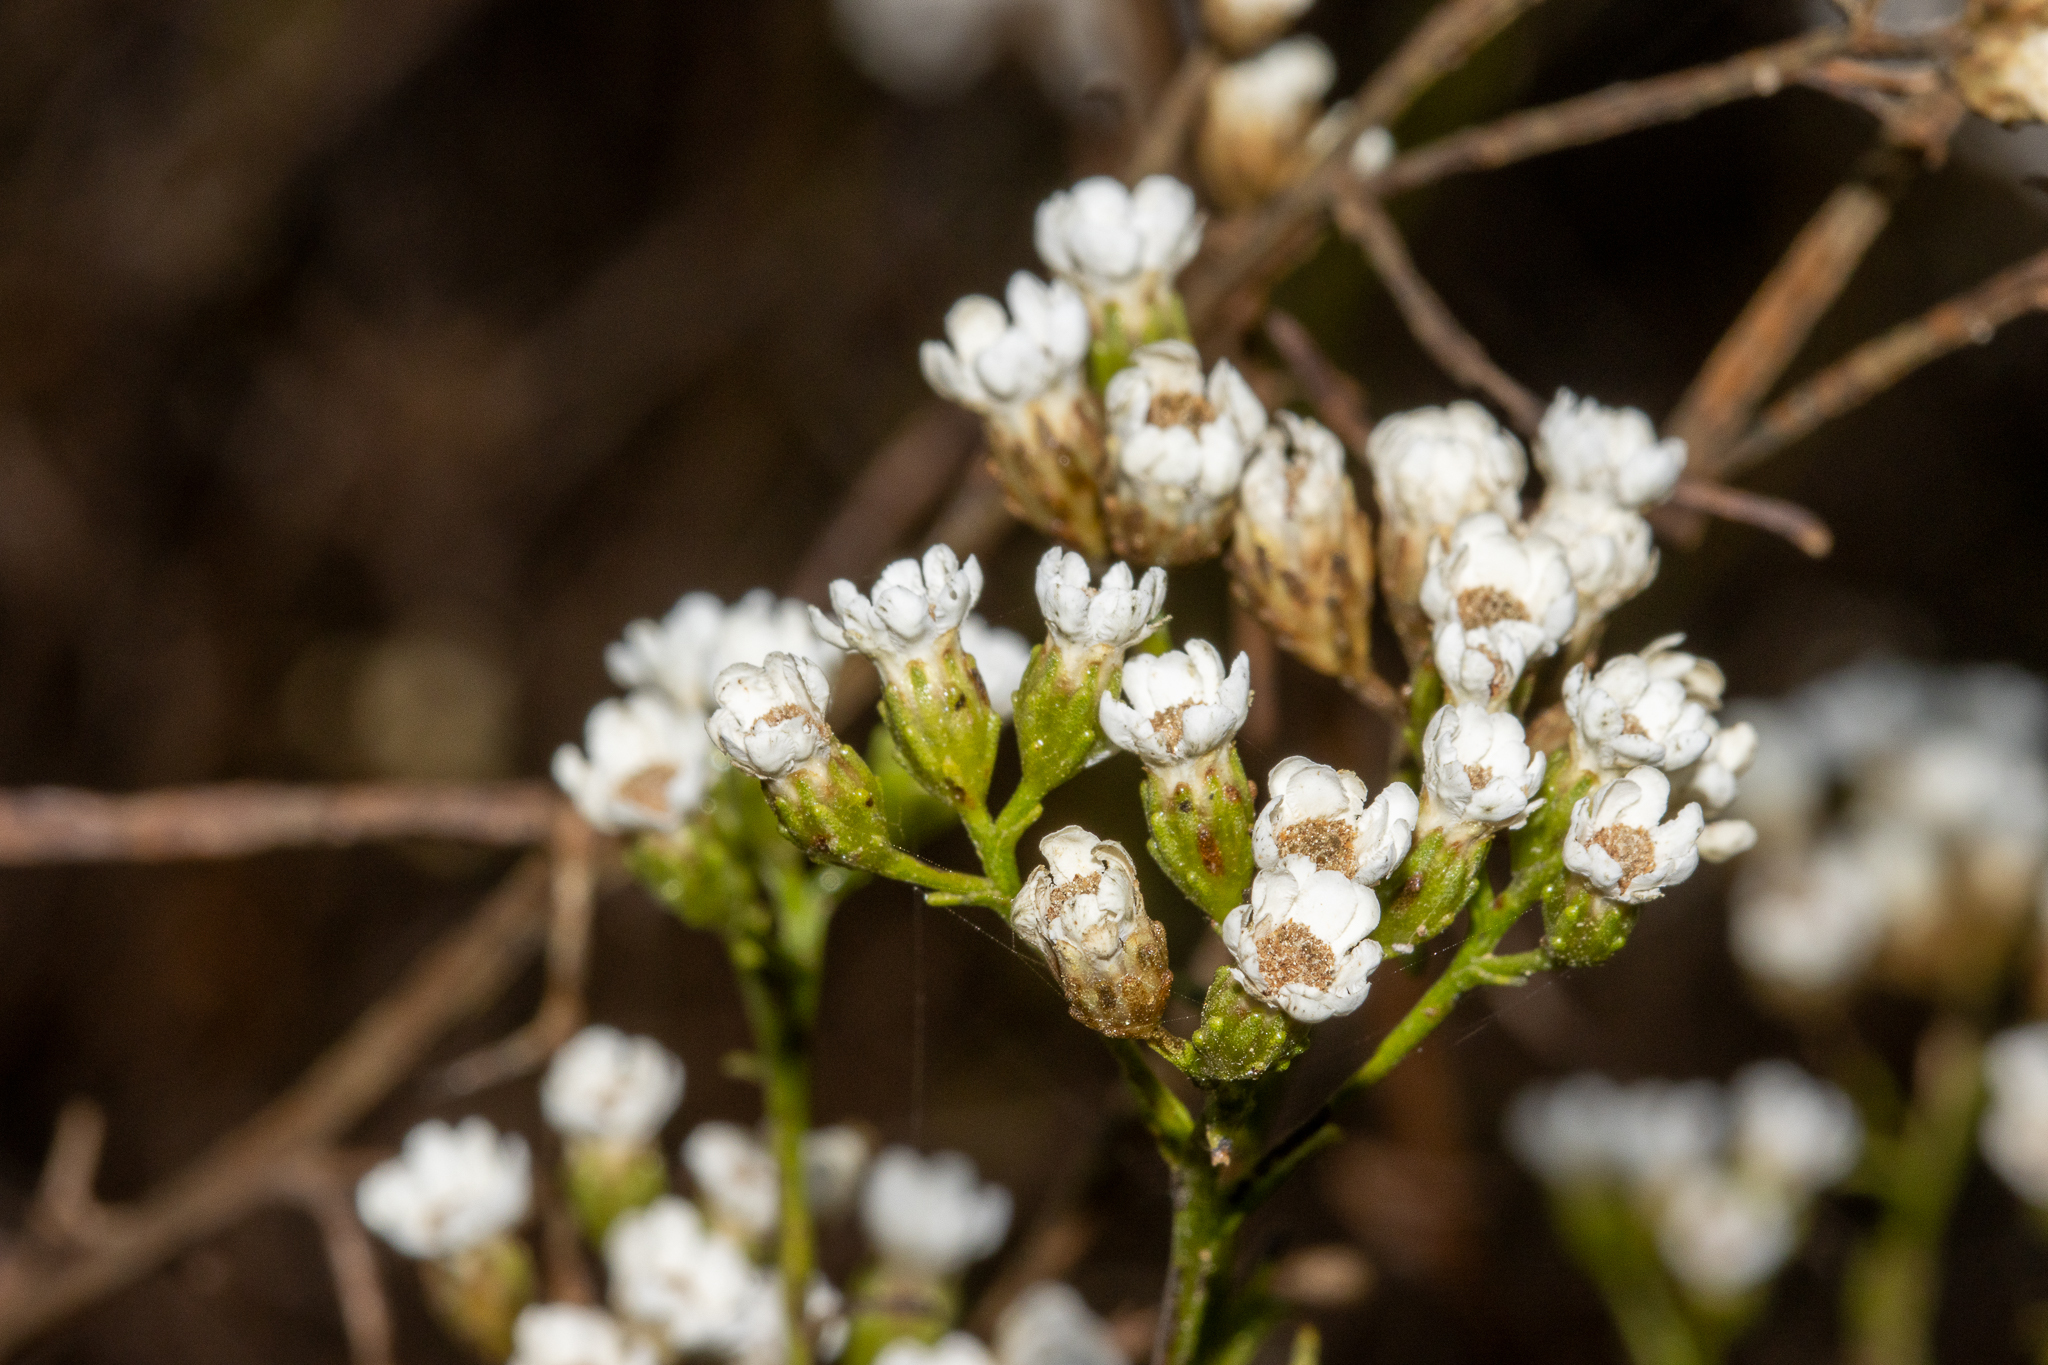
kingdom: Plantae
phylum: Tracheophyta
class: Magnoliopsida
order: Asterales
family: Asteraceae
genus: Ixodia
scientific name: Ixodia achillaeoides
